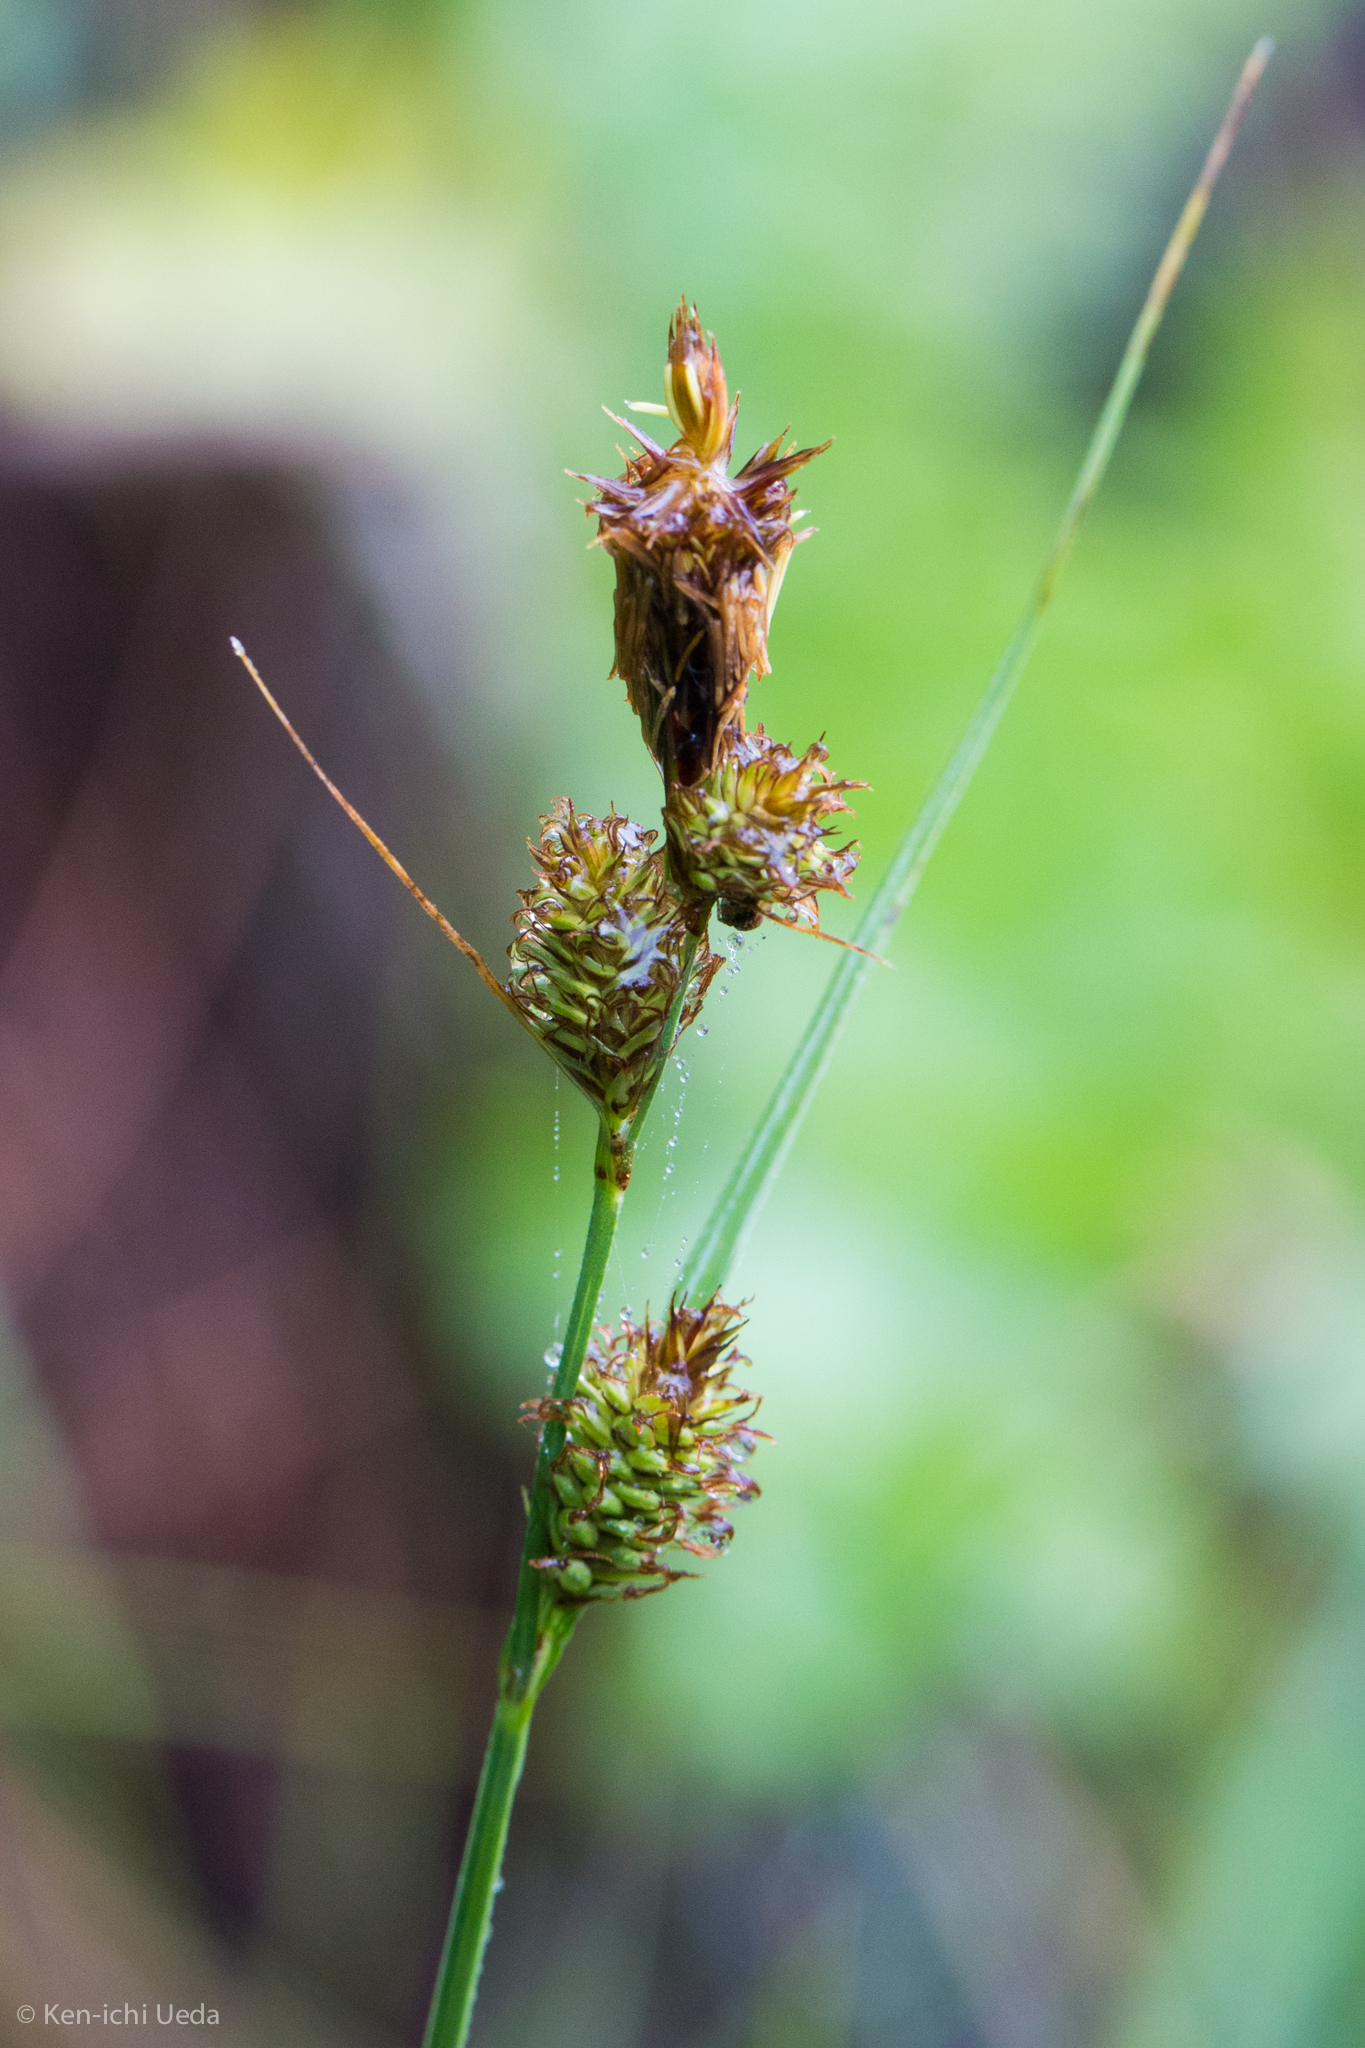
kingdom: Plantae
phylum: Tracheophyta
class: Liliopsida
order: Poales
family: Cyperaceae
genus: Carex
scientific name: Carex serratodens
